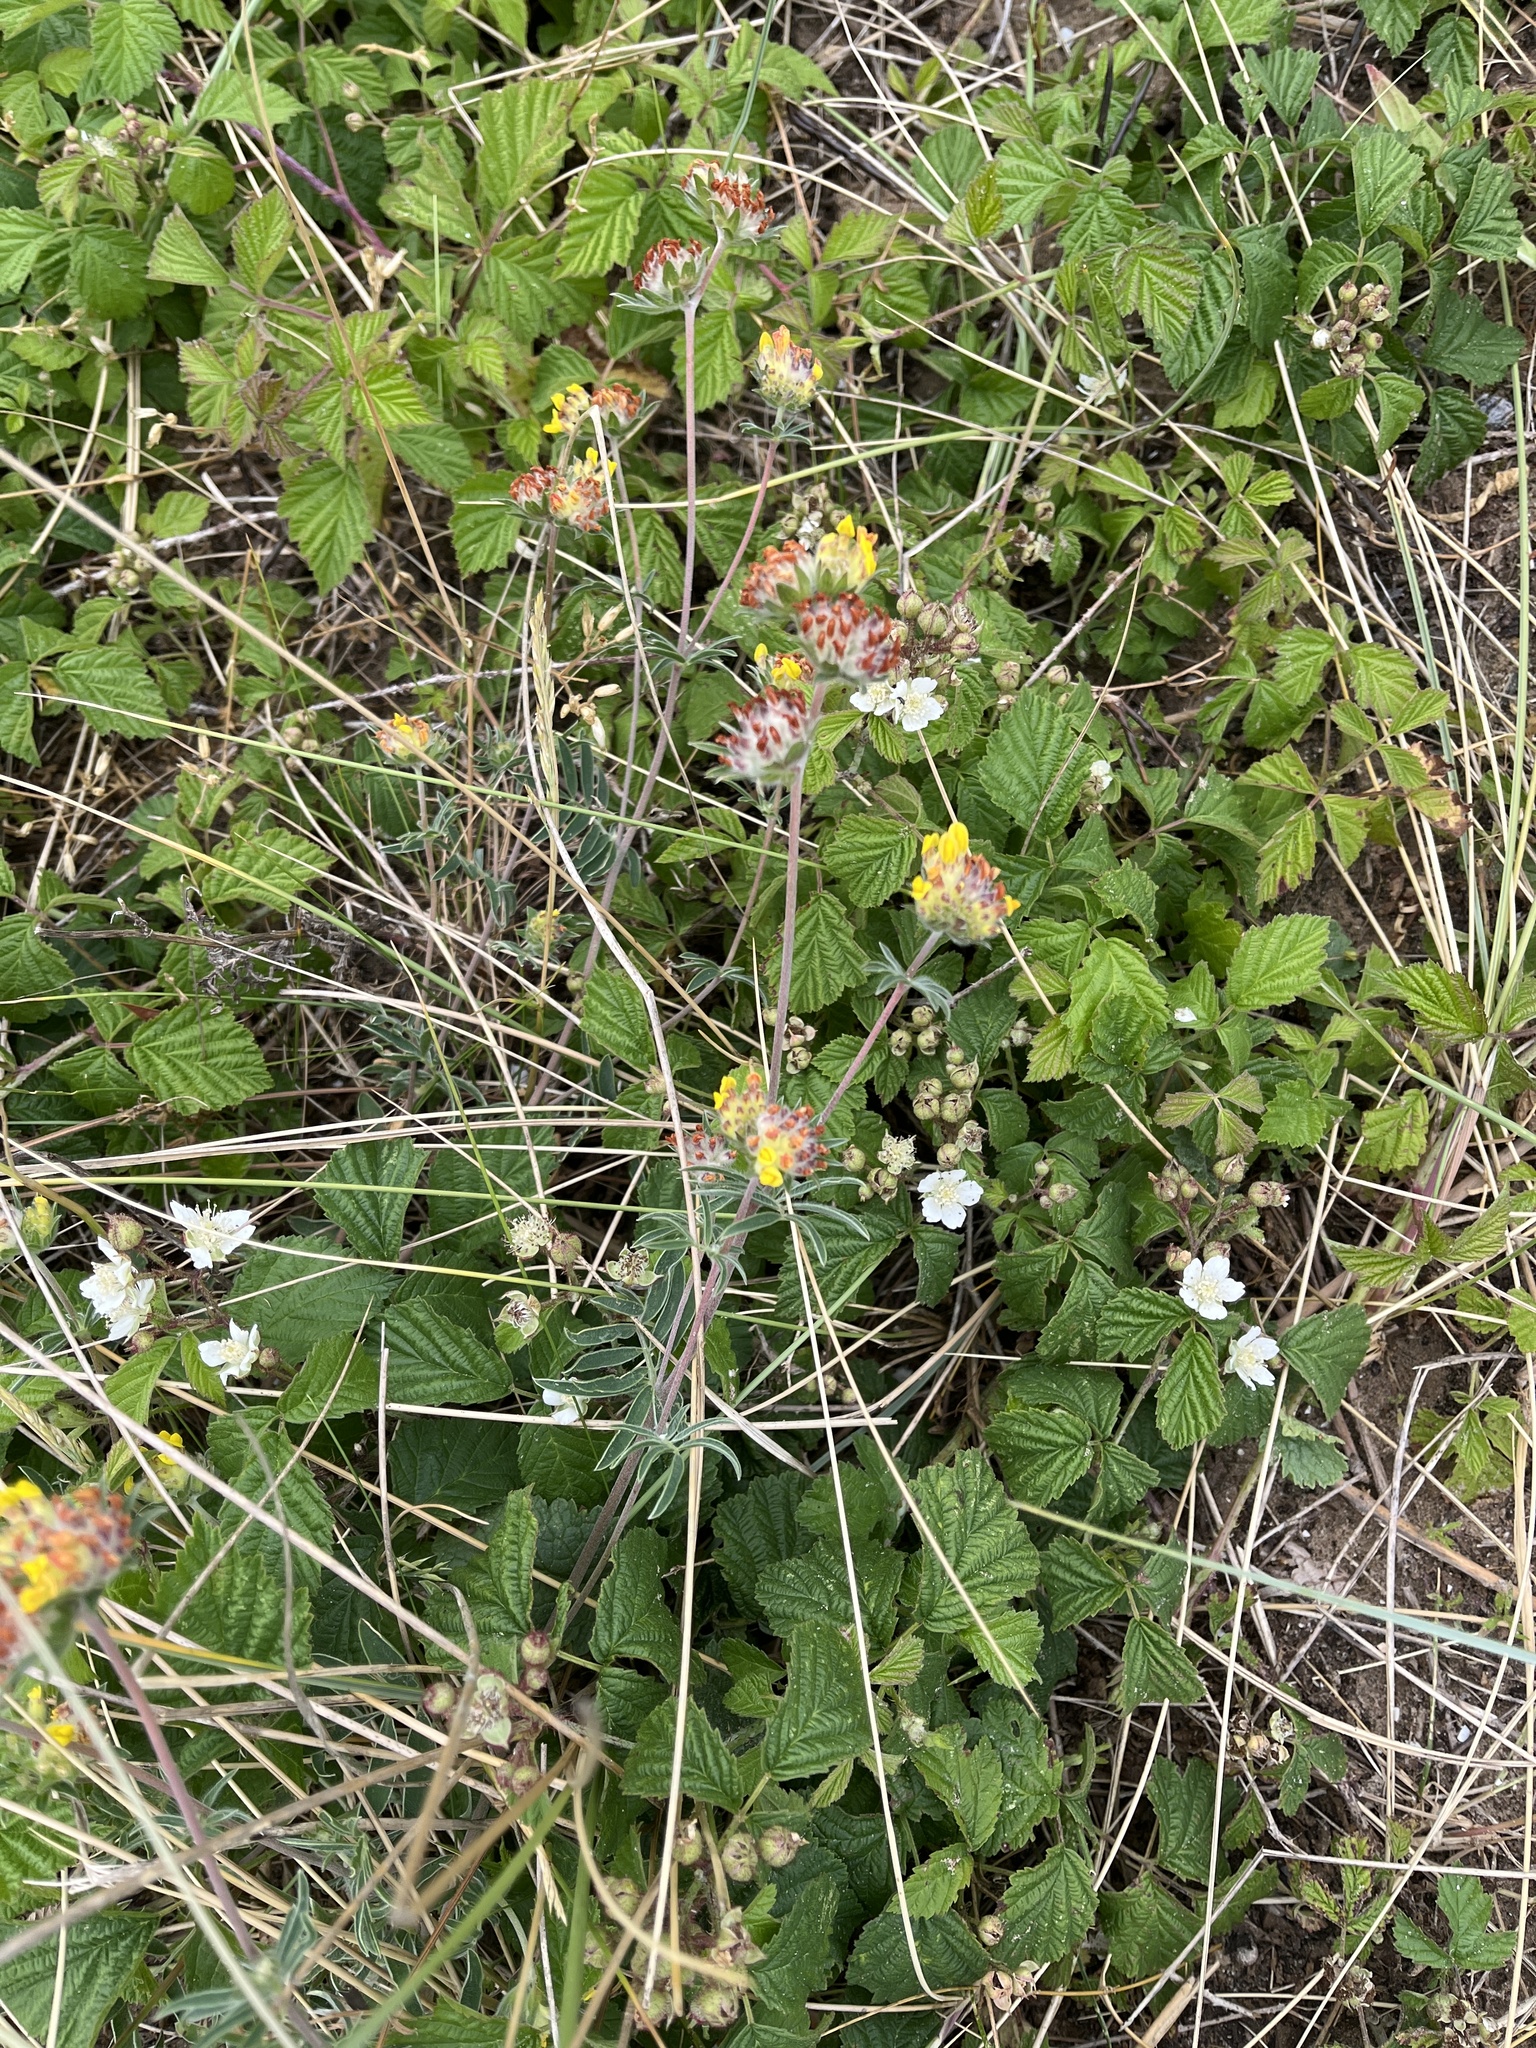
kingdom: Plantae
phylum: Tracheophyta
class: Magnoliopsida
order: Fabales
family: Fabaceae
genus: Anthyllis
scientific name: Anthyllis vulneraria
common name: Kidney vetch
